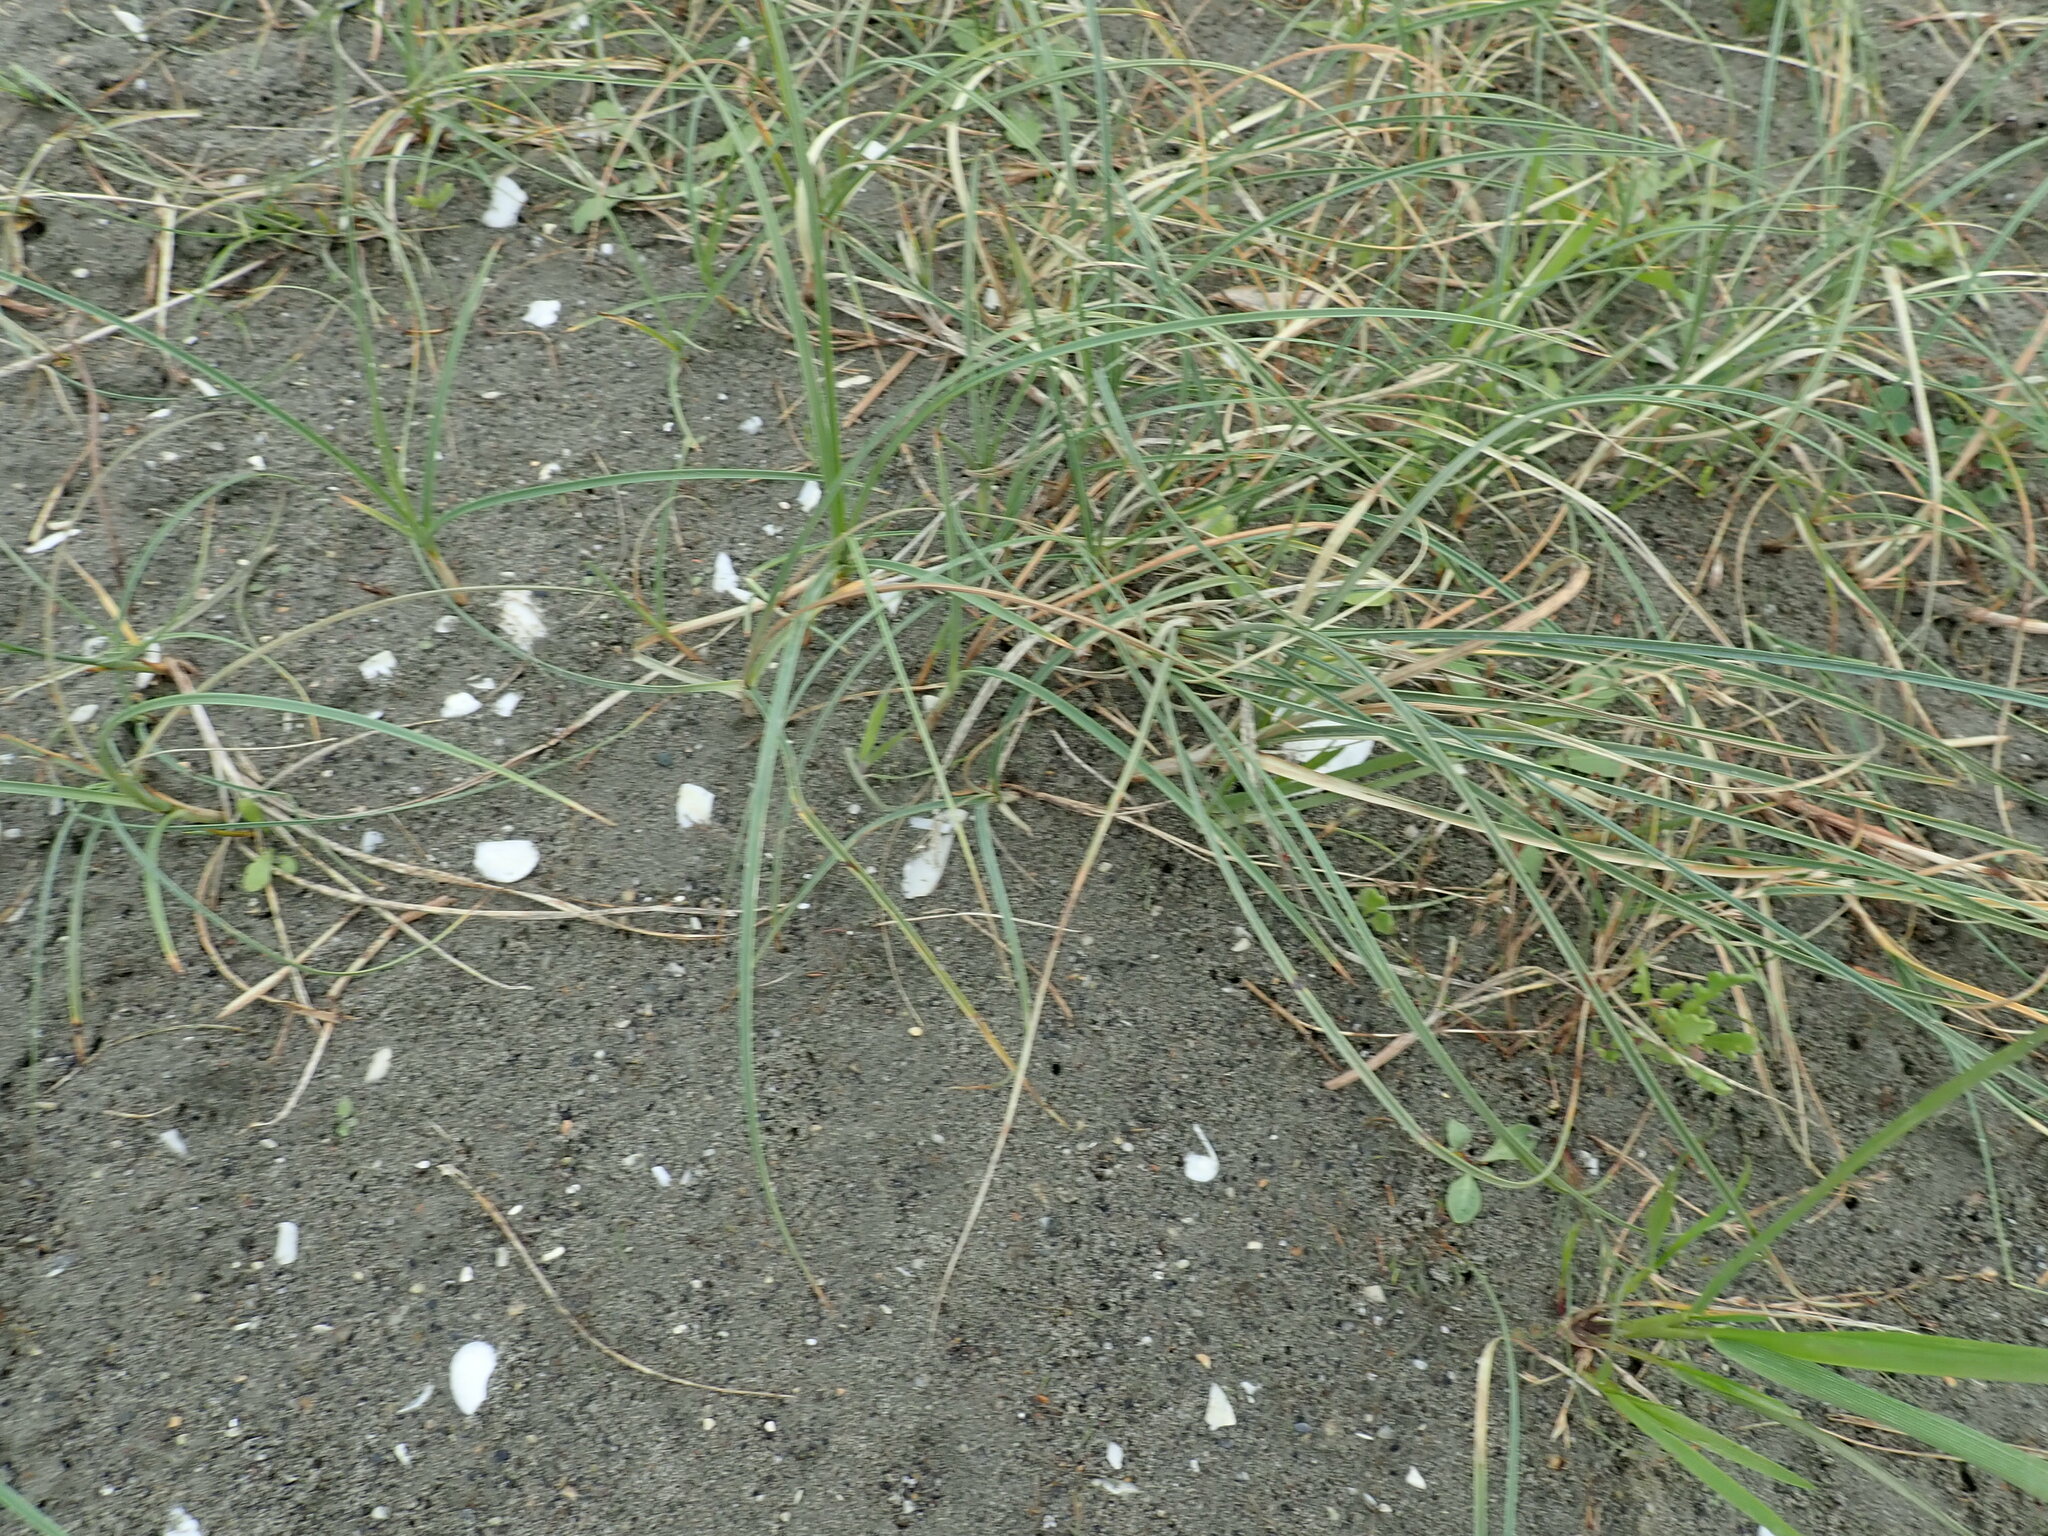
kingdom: Plantae
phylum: Tracheophyta
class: Liliopsida
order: Poales
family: Cyperaceae
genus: Carex
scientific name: Carex pumila
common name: Dwarf sedge
